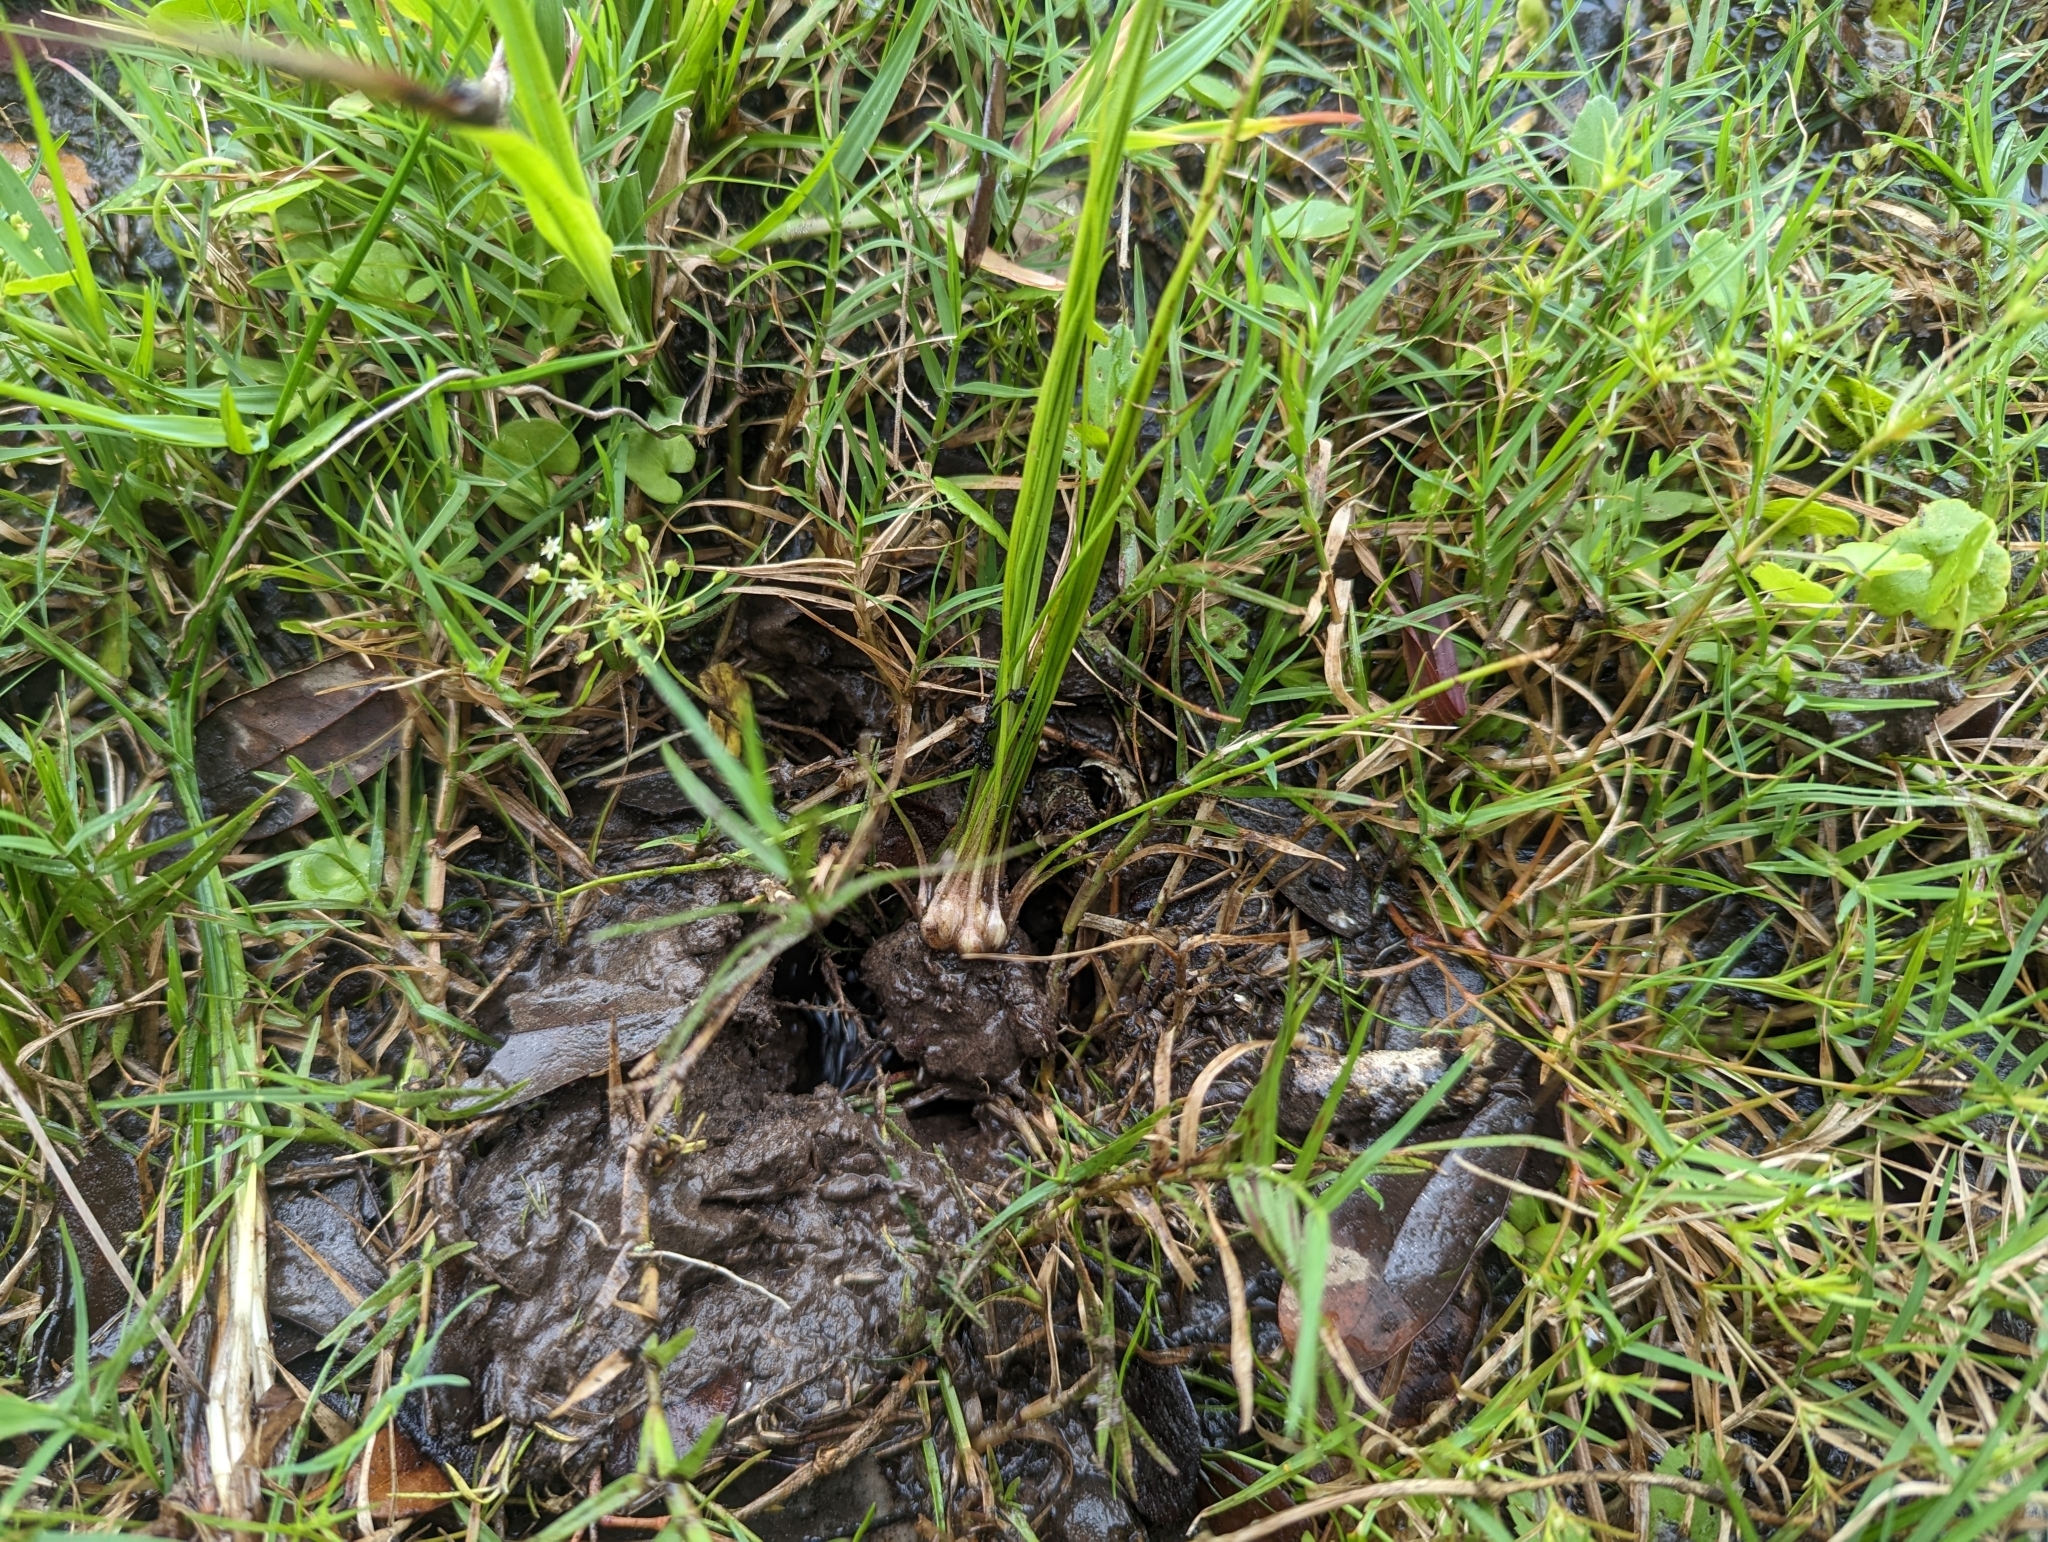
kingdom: Plantae
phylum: Tracheophyta
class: Lycopodiopsida
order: Isoetales
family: Isoetaceae
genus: Isoetes
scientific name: Isoetes texana
